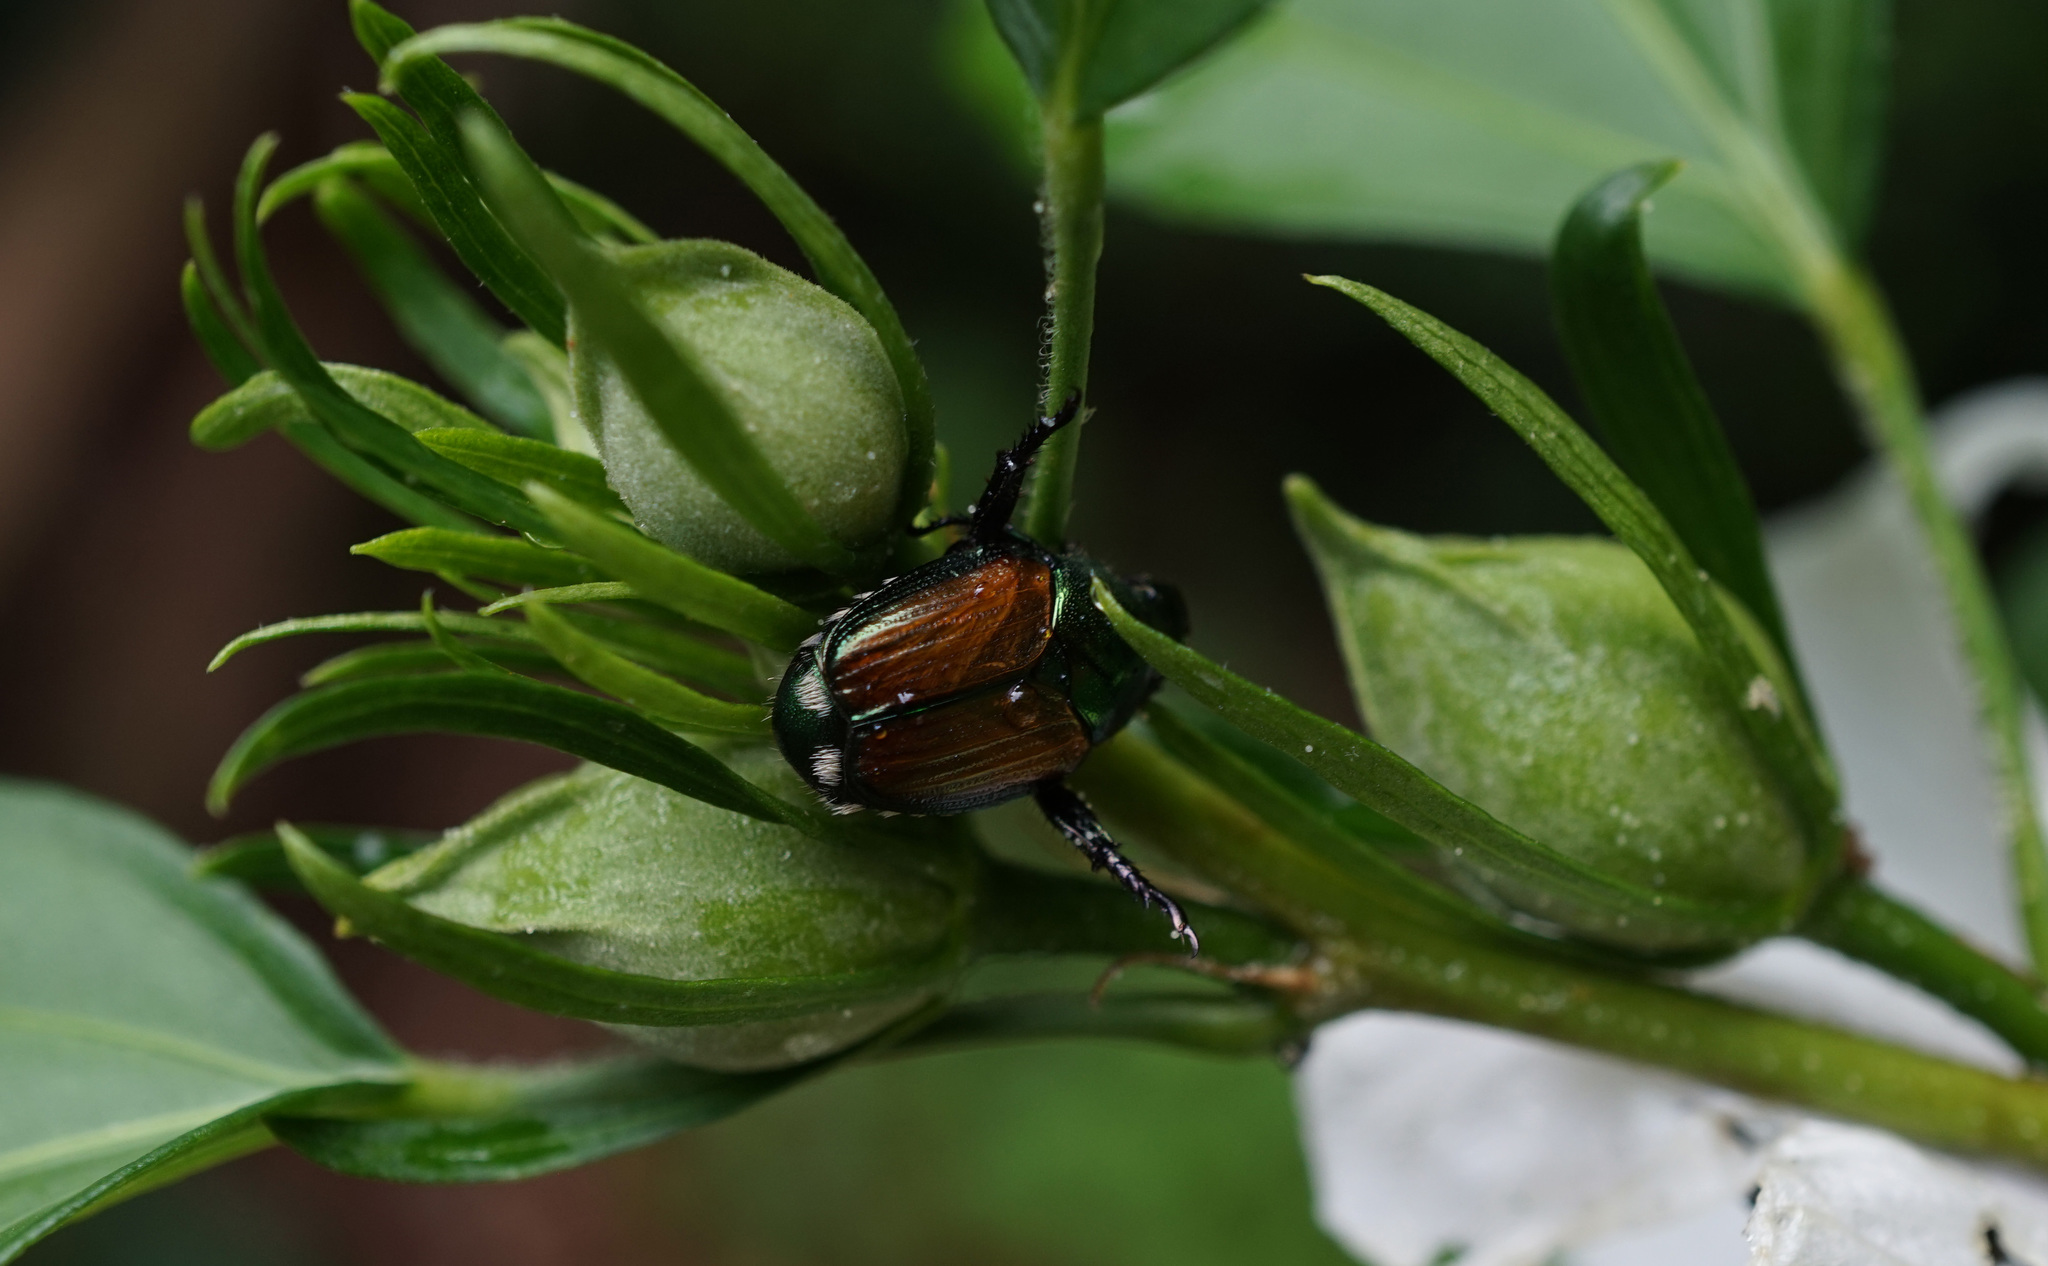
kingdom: Animalia
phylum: Arthropoda
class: Insecta
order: Coleoptera
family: Scarabaeidae
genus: Popillia
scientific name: Popillia japonica
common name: Japanese beetle
